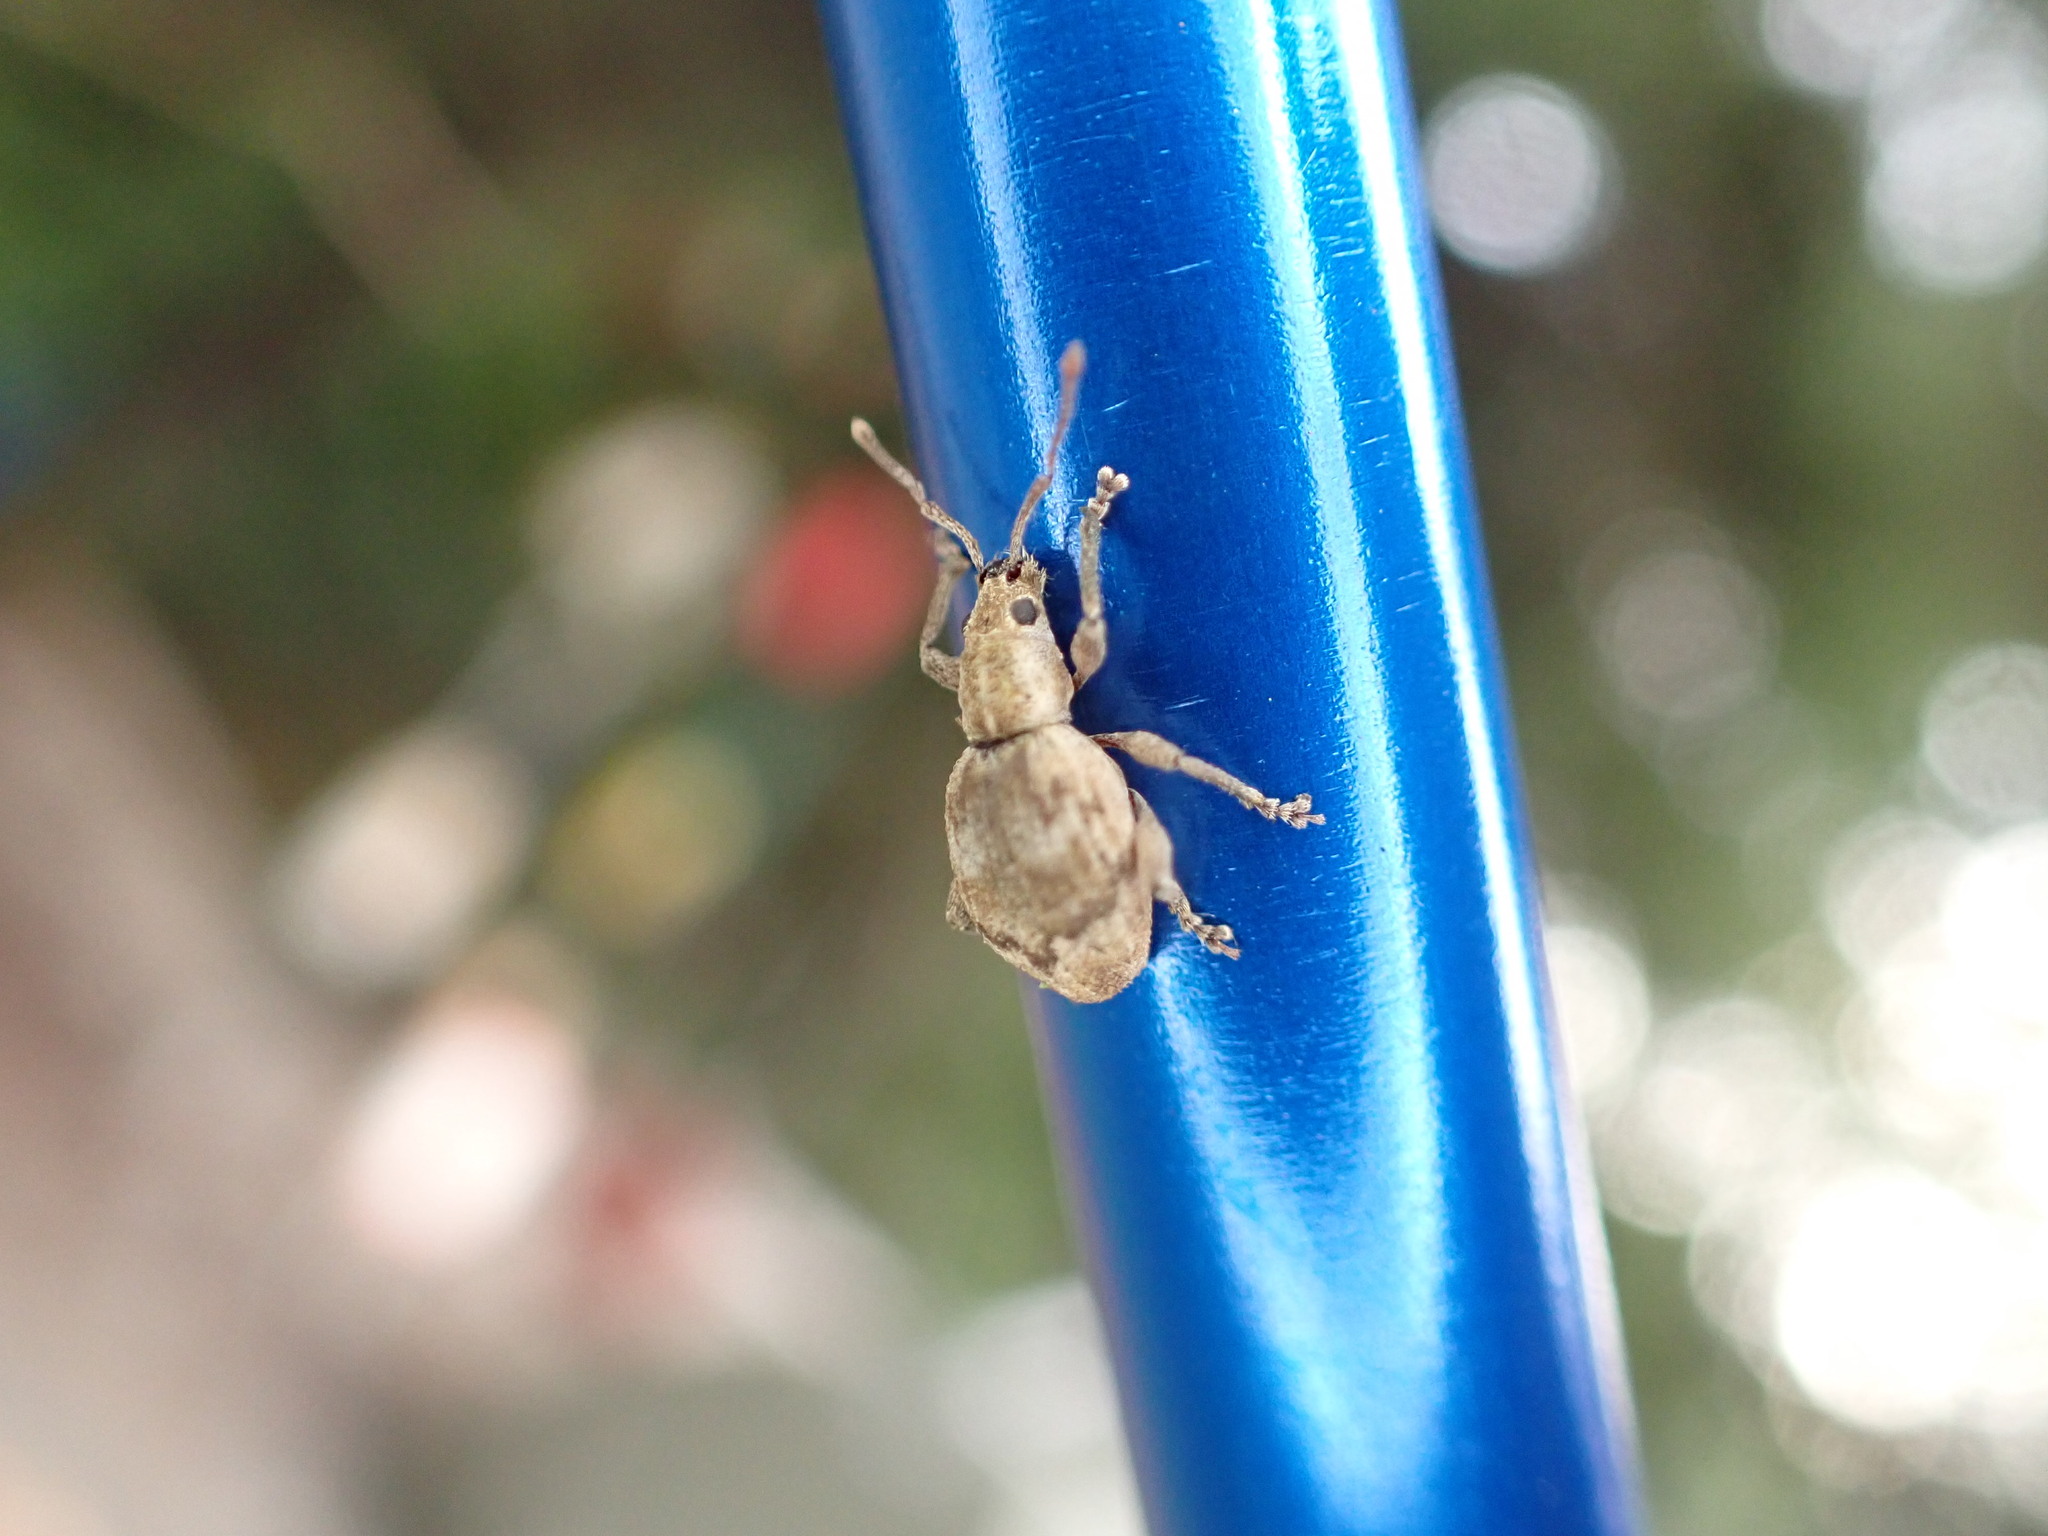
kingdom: Animalia
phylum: Arthropoda
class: Insecta
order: Coleoptera
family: Curculionidae
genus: Sciopithes
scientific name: Sciopithes obscurus
